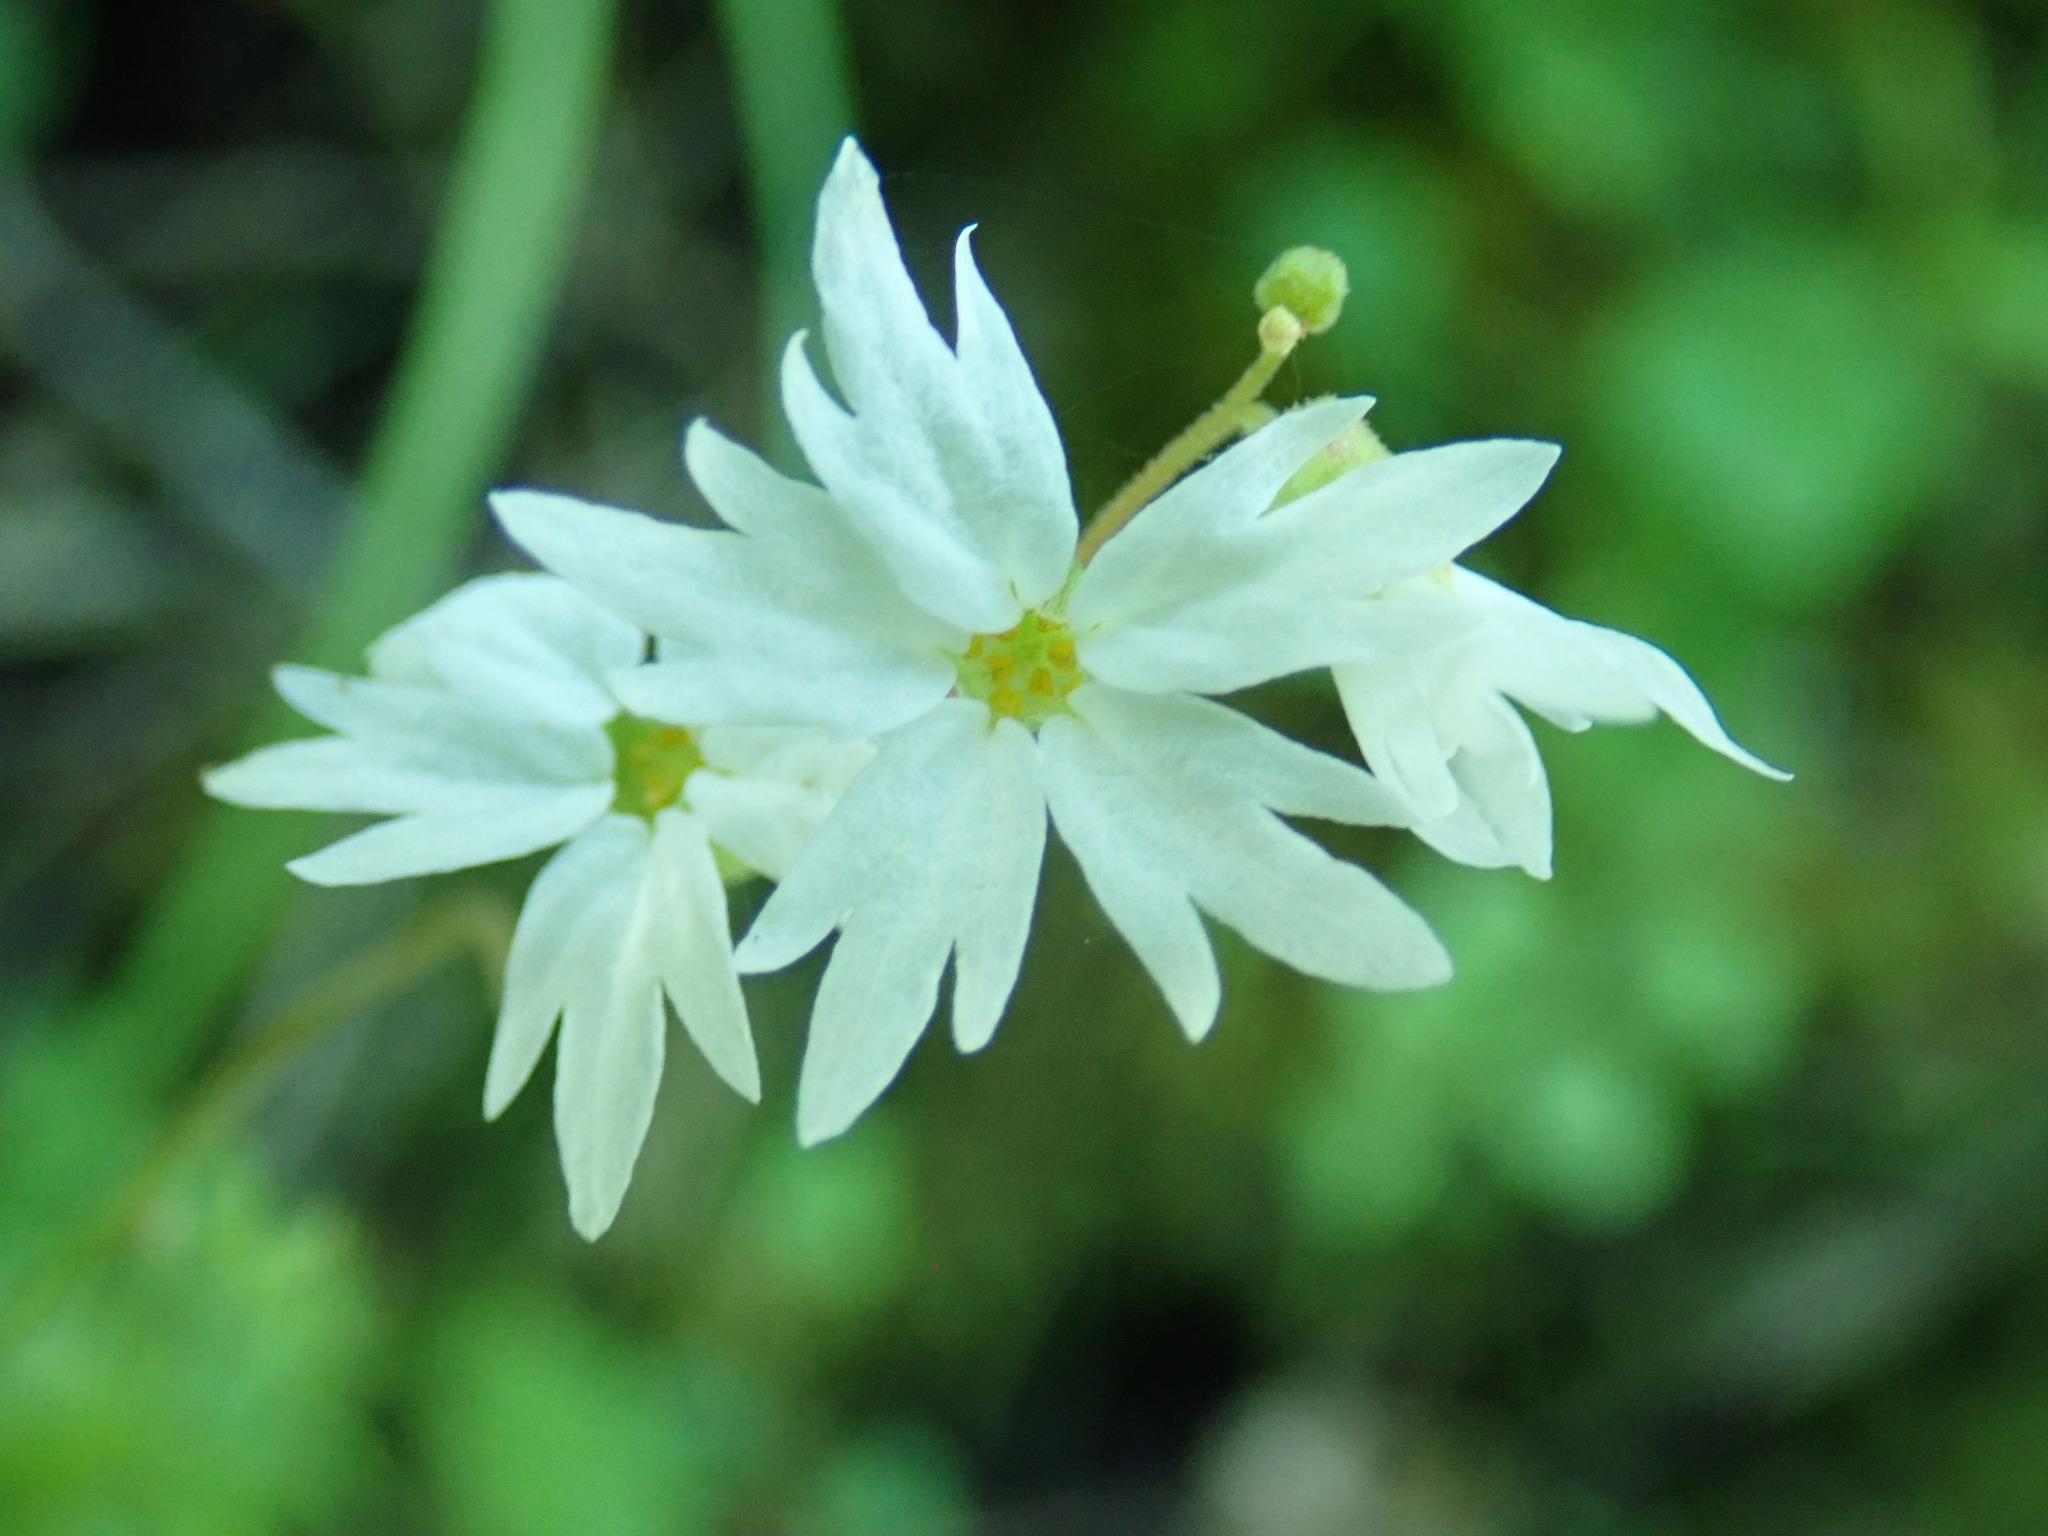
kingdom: Plantae
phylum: Tracheophyta
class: Magnoliopsida
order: Saxifragales
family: Saxifragaceae
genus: Lithophragma
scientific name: Lithophragma heterophyllum
